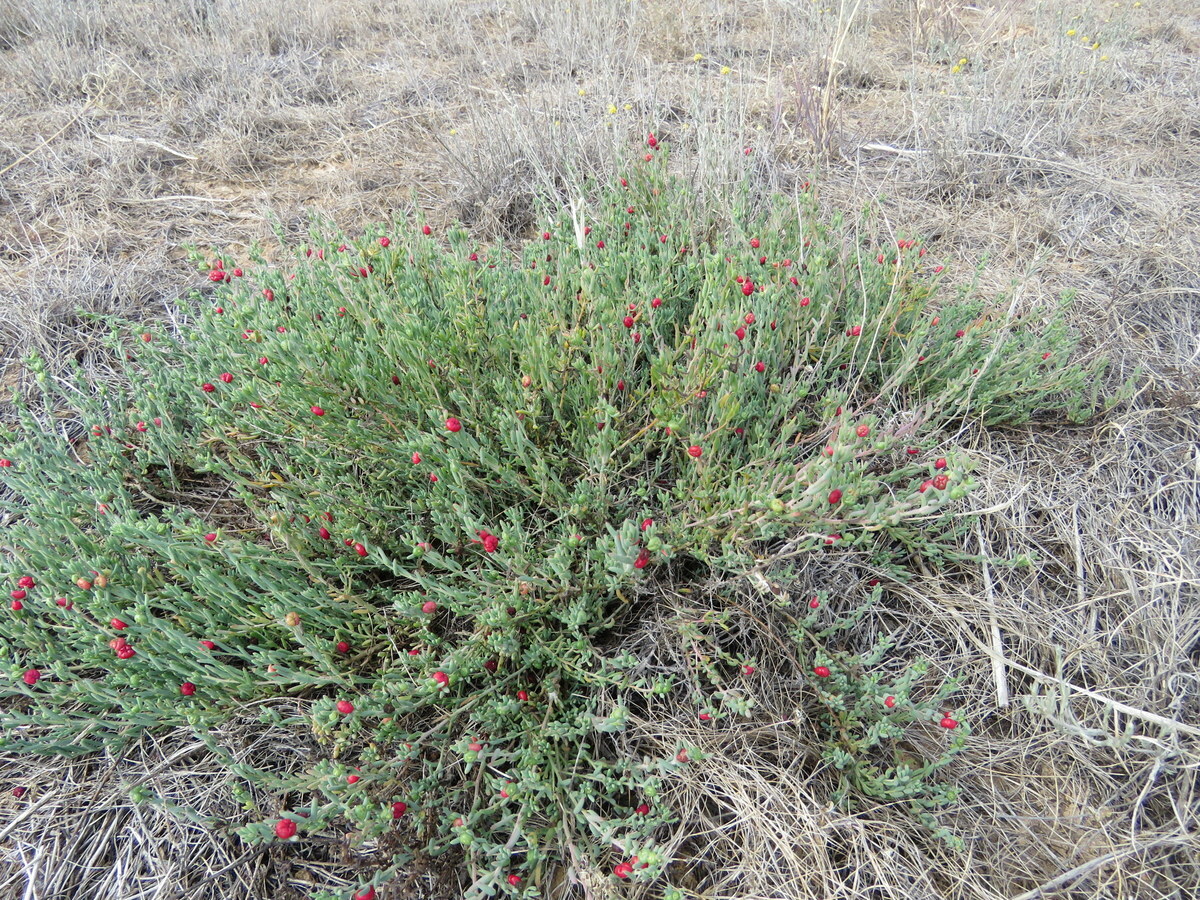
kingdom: Plantae
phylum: Tracheophyta
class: Magnoliopsida
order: Caryophyllales
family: Amaranthaceae
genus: Enchylaena
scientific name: Enchylaena tomentosa
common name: Ruby saltbush
